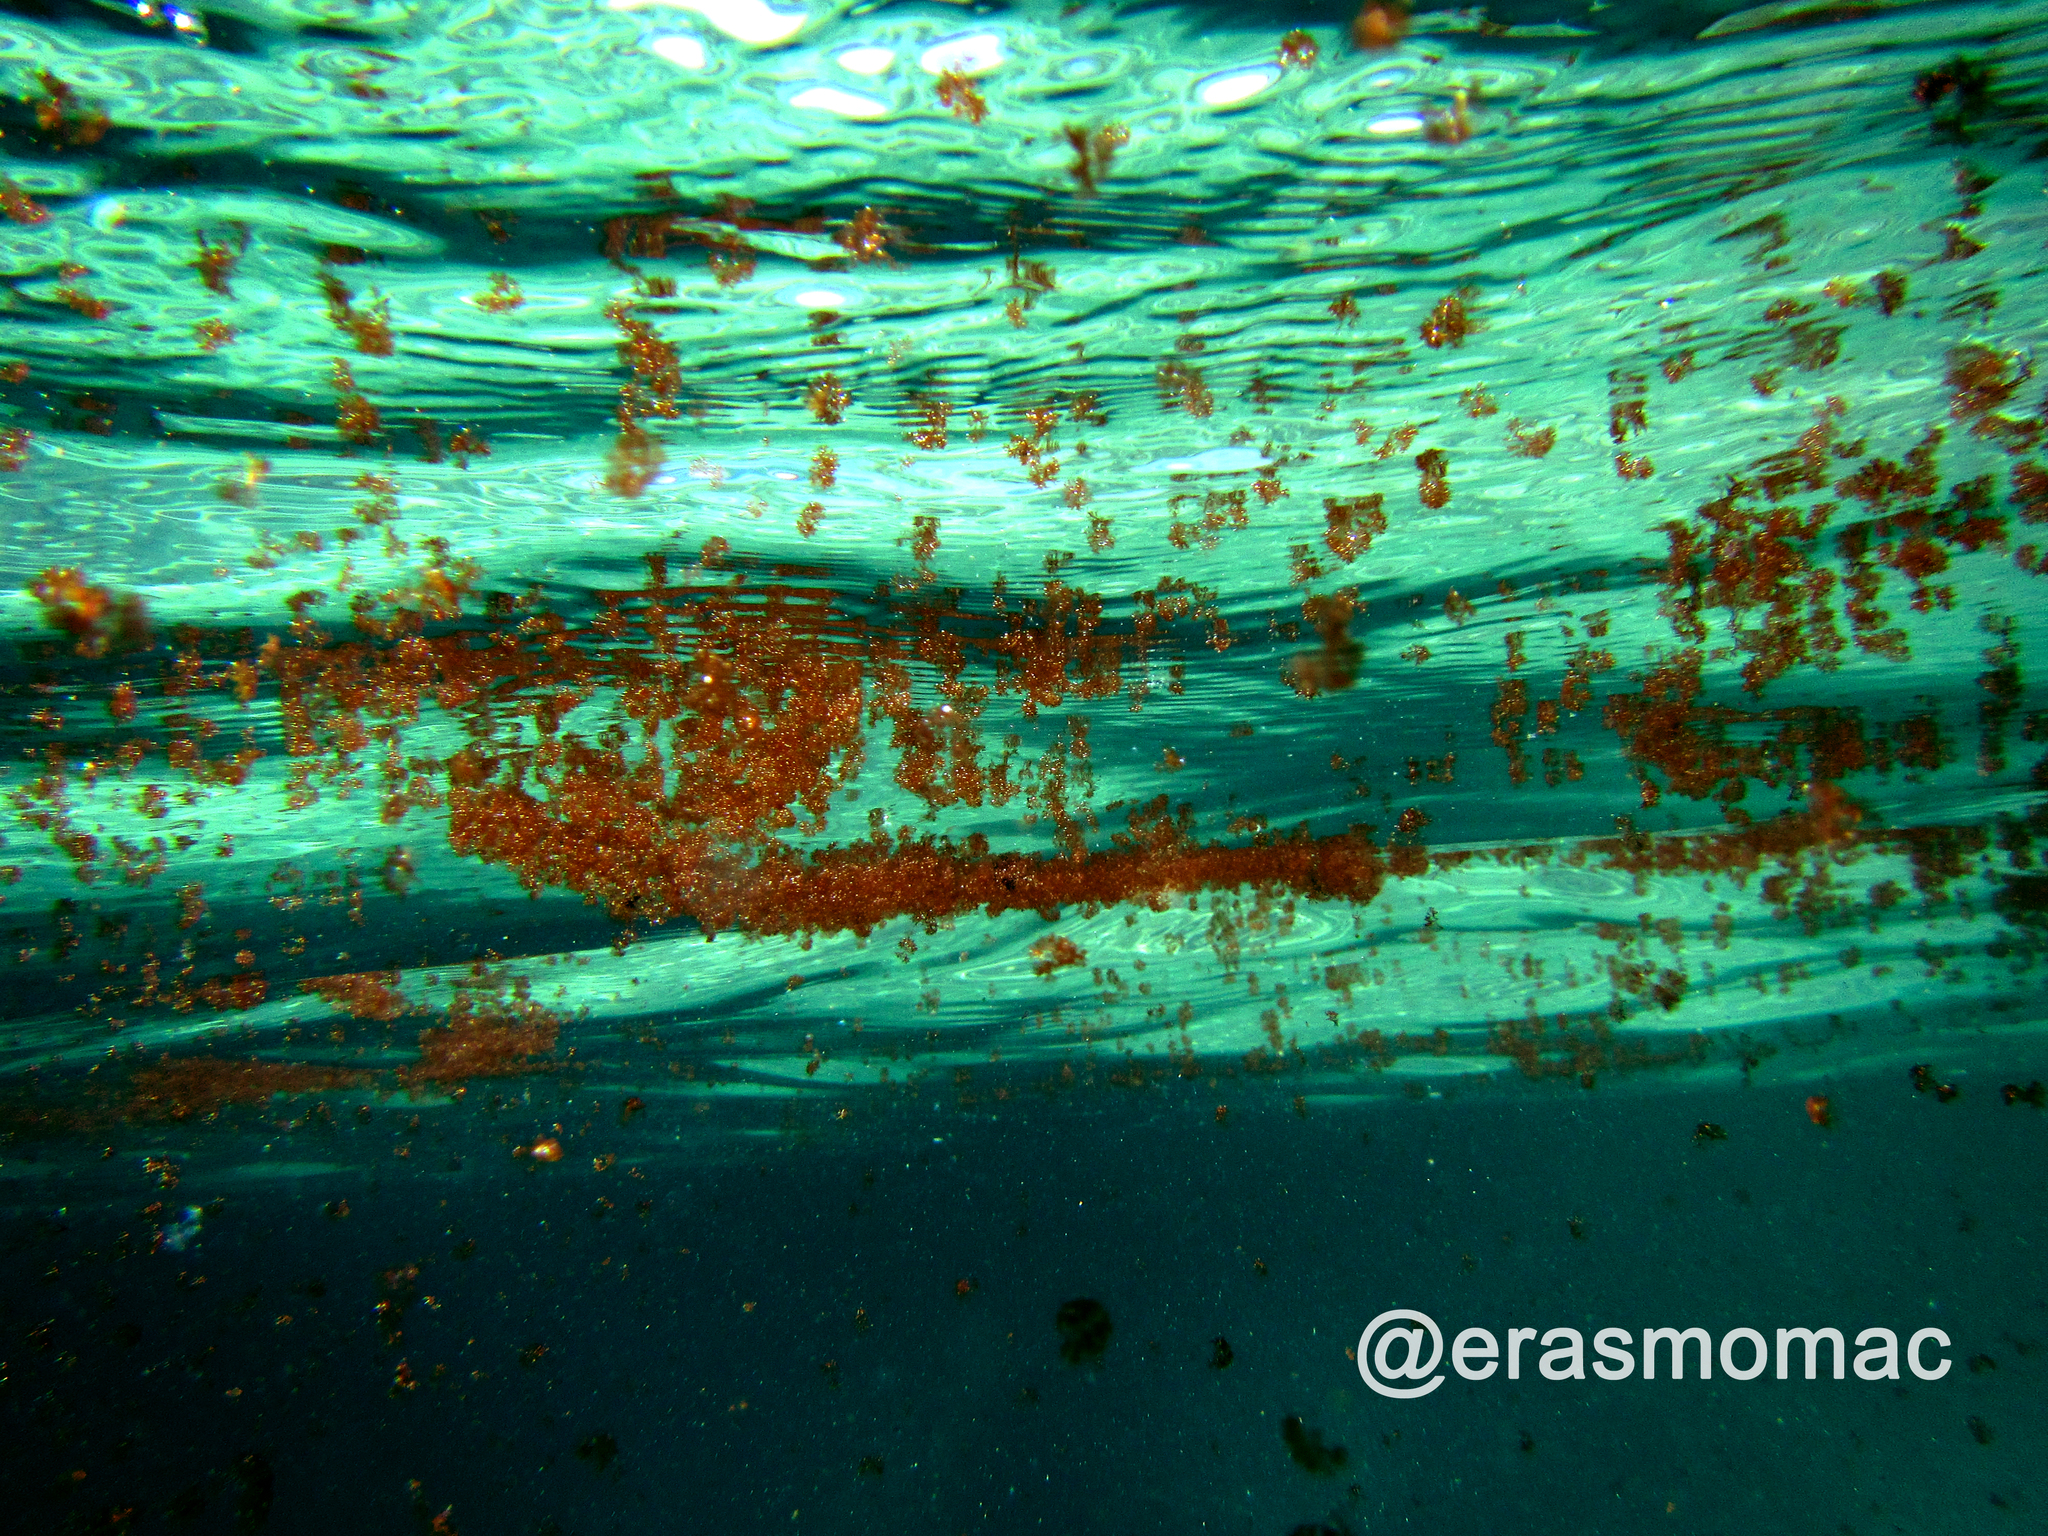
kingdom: Plantae
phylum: Rhodophyta
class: Florideophyceae
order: Bonnemaisoniales
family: Bonnemaisoniaceae
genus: Asparagopsis
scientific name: Asparagopsis armata
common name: Harpoon weed
